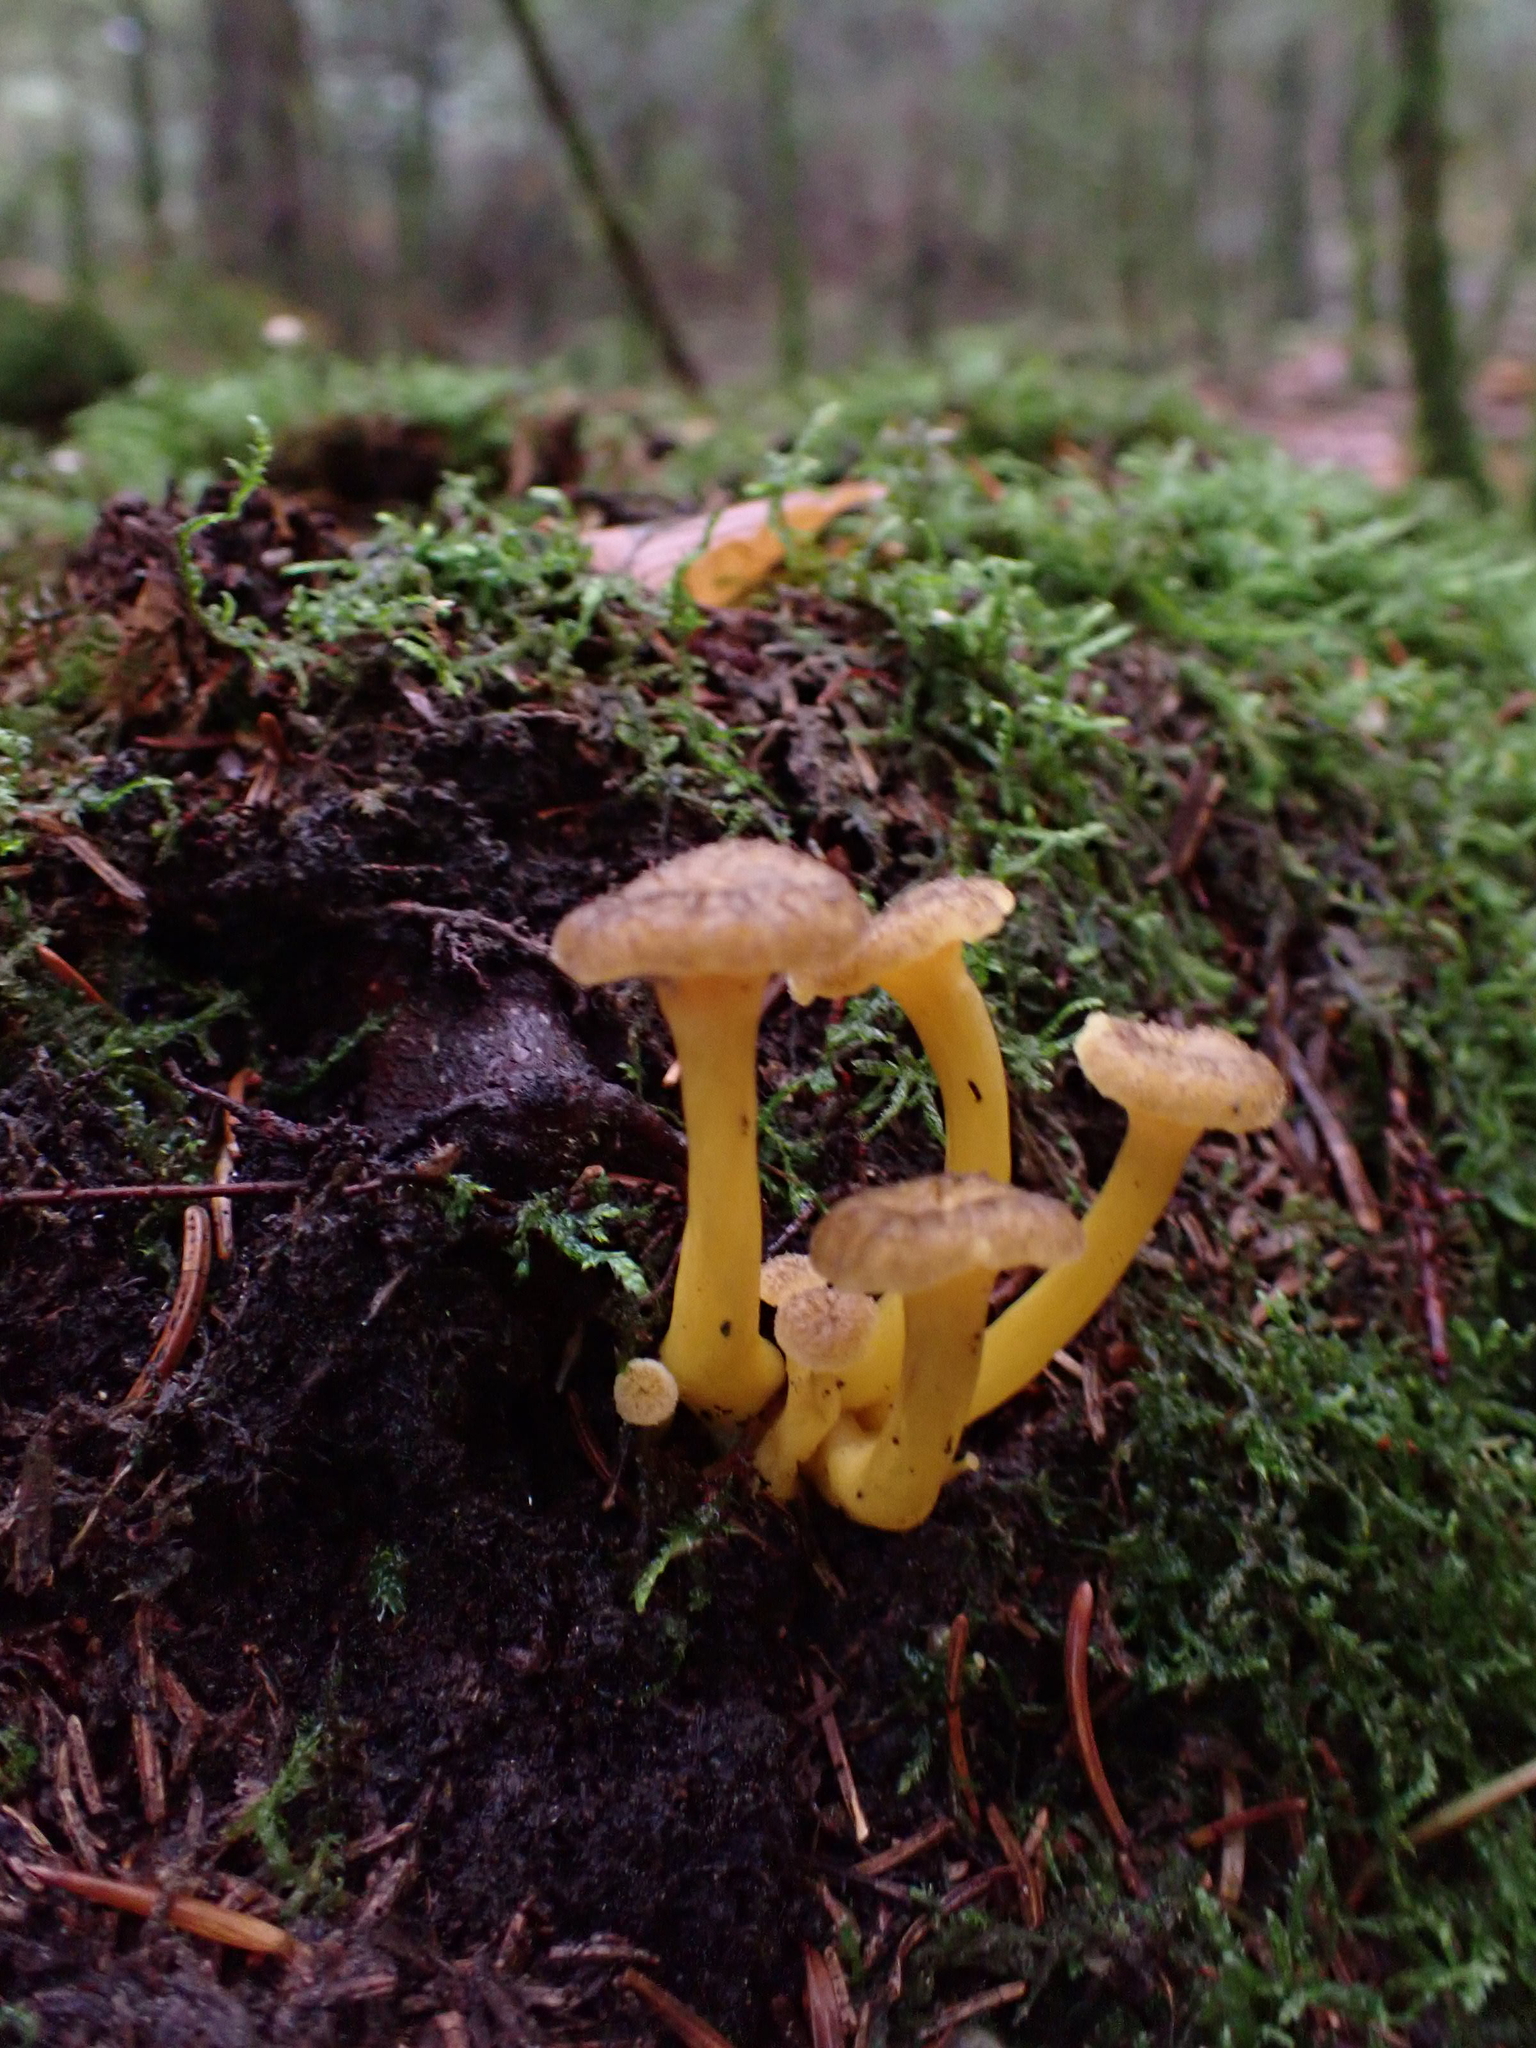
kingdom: Fungi
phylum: Basidiomycota
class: Agaricomycetes
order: Cantharellales
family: Hydnaceae
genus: Craterellus
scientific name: Craterellus tubaeformis
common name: Yellowfoot
